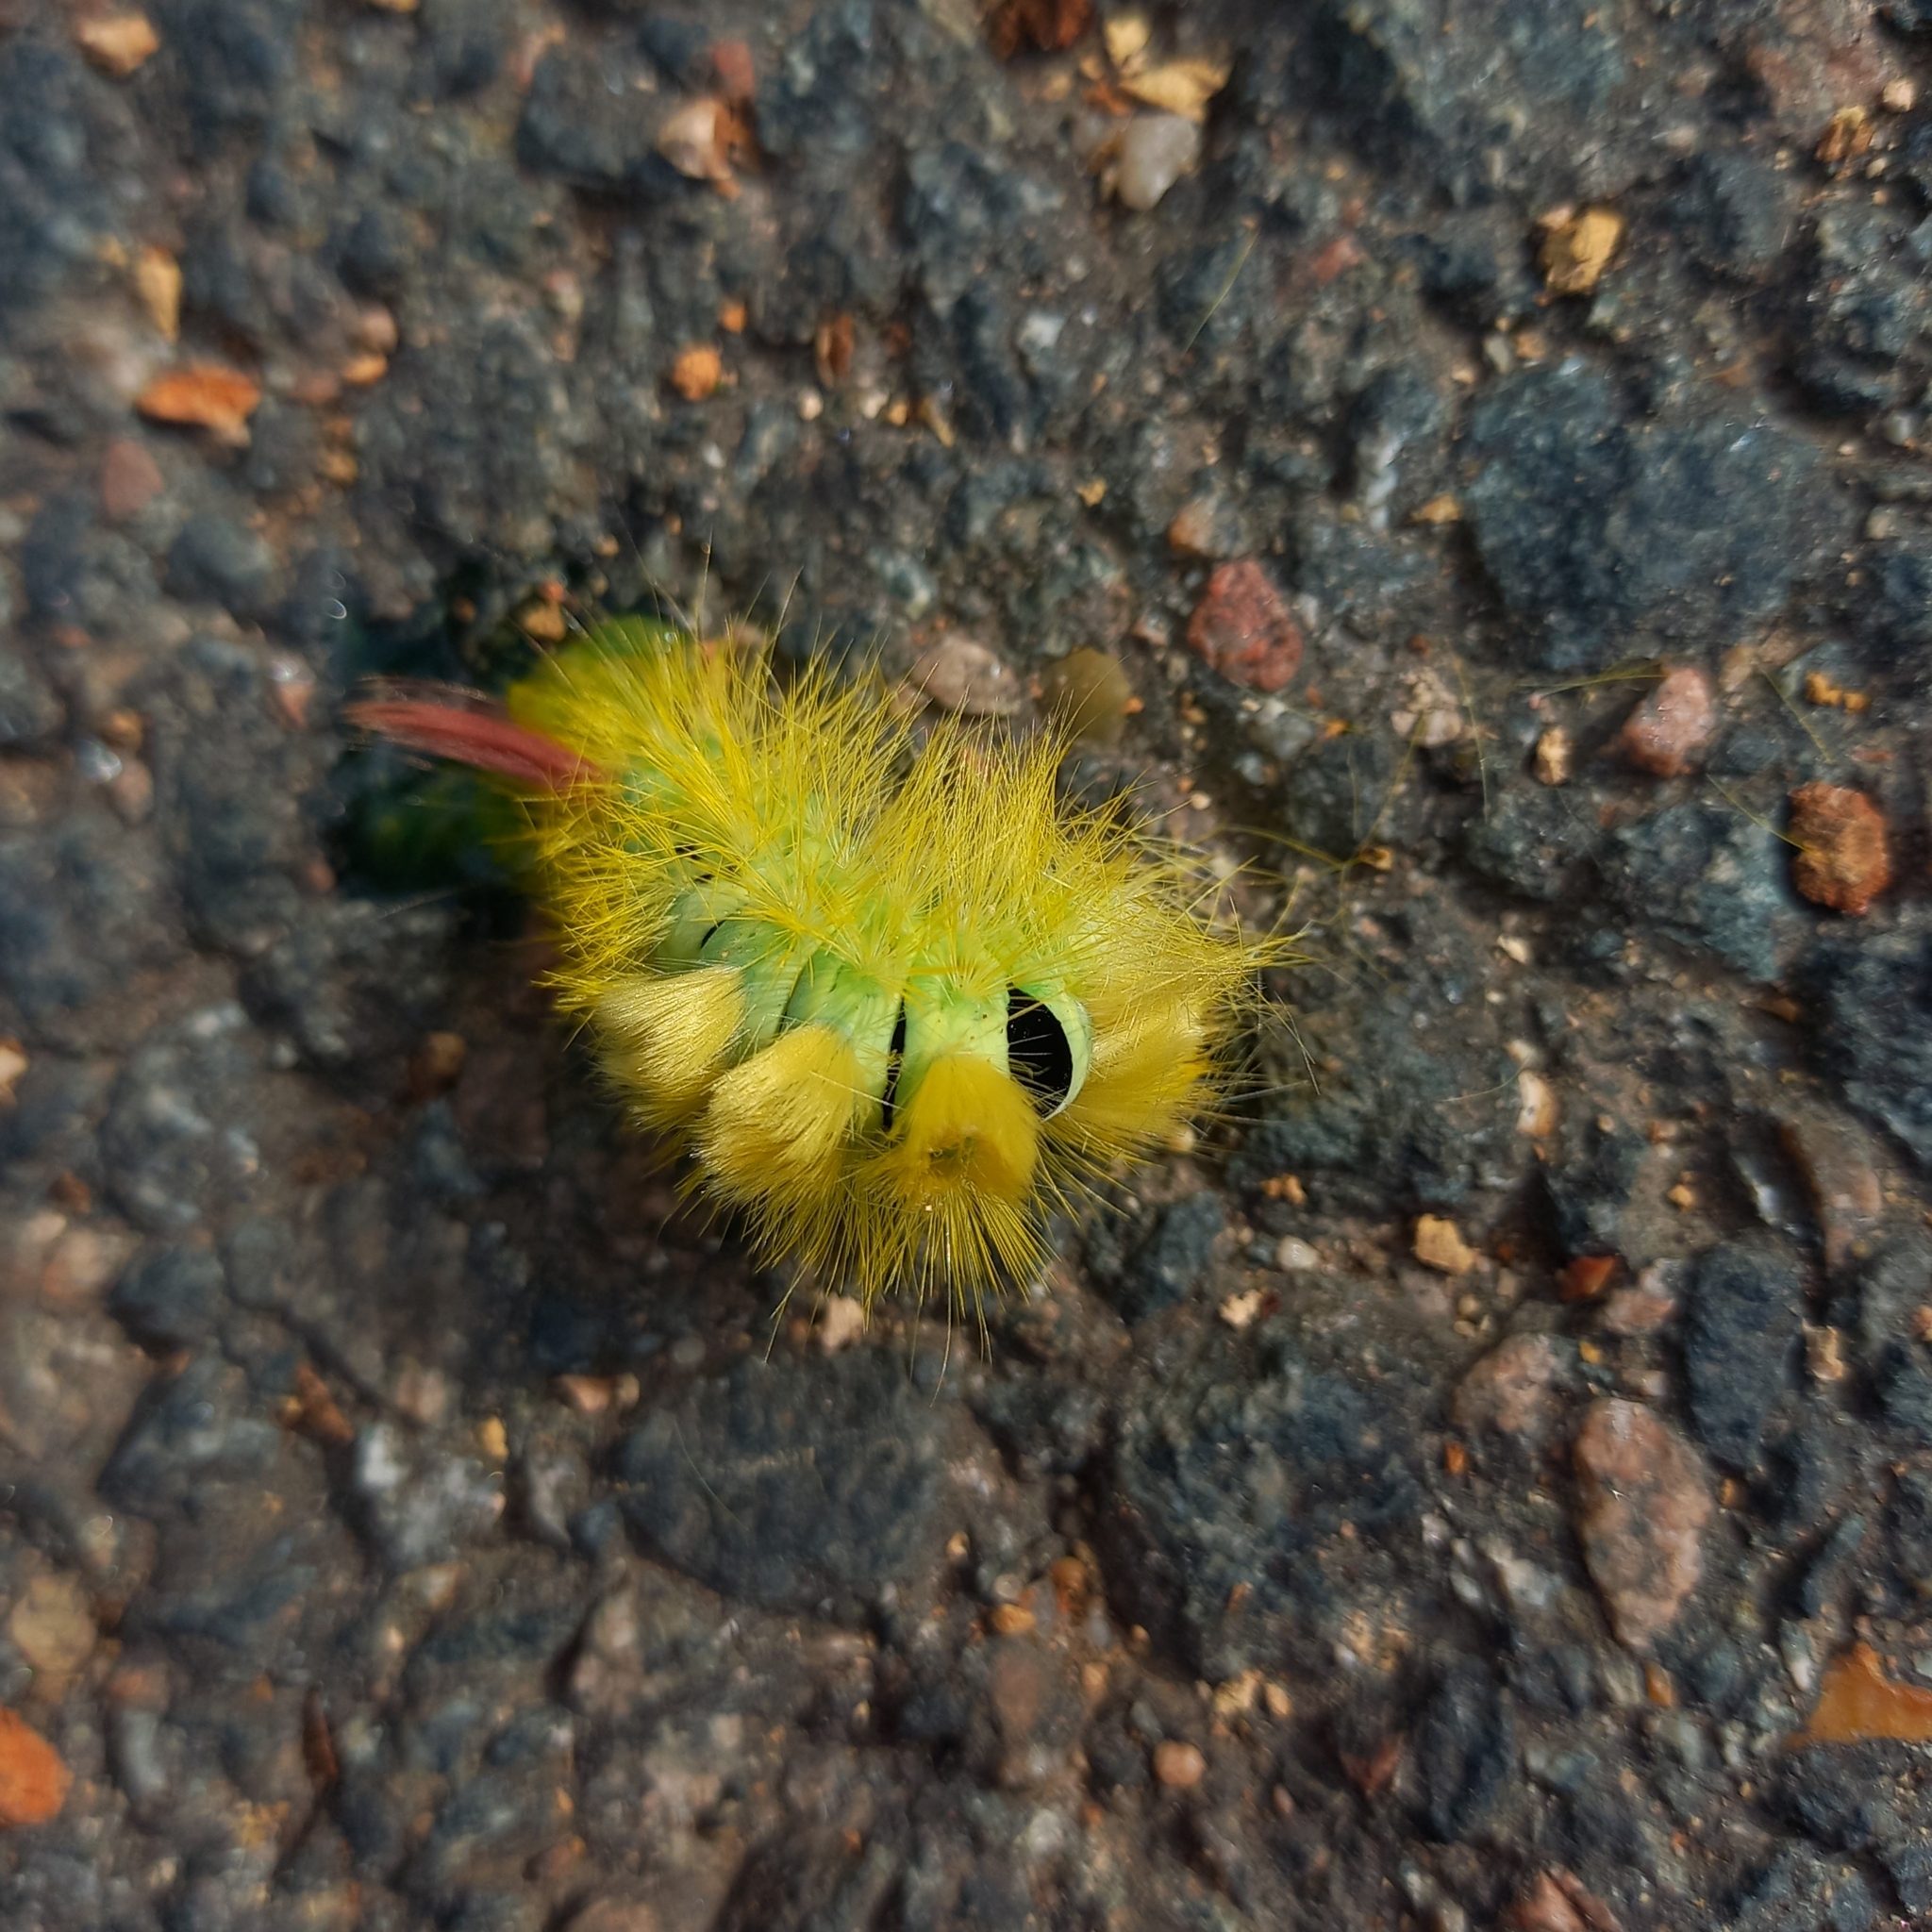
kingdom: Animalia
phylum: Arthropoda
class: Insecta
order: Lepidoptera
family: Erebidae
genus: Calliteara
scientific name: Calliteara pudibunda
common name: Pale tussock
